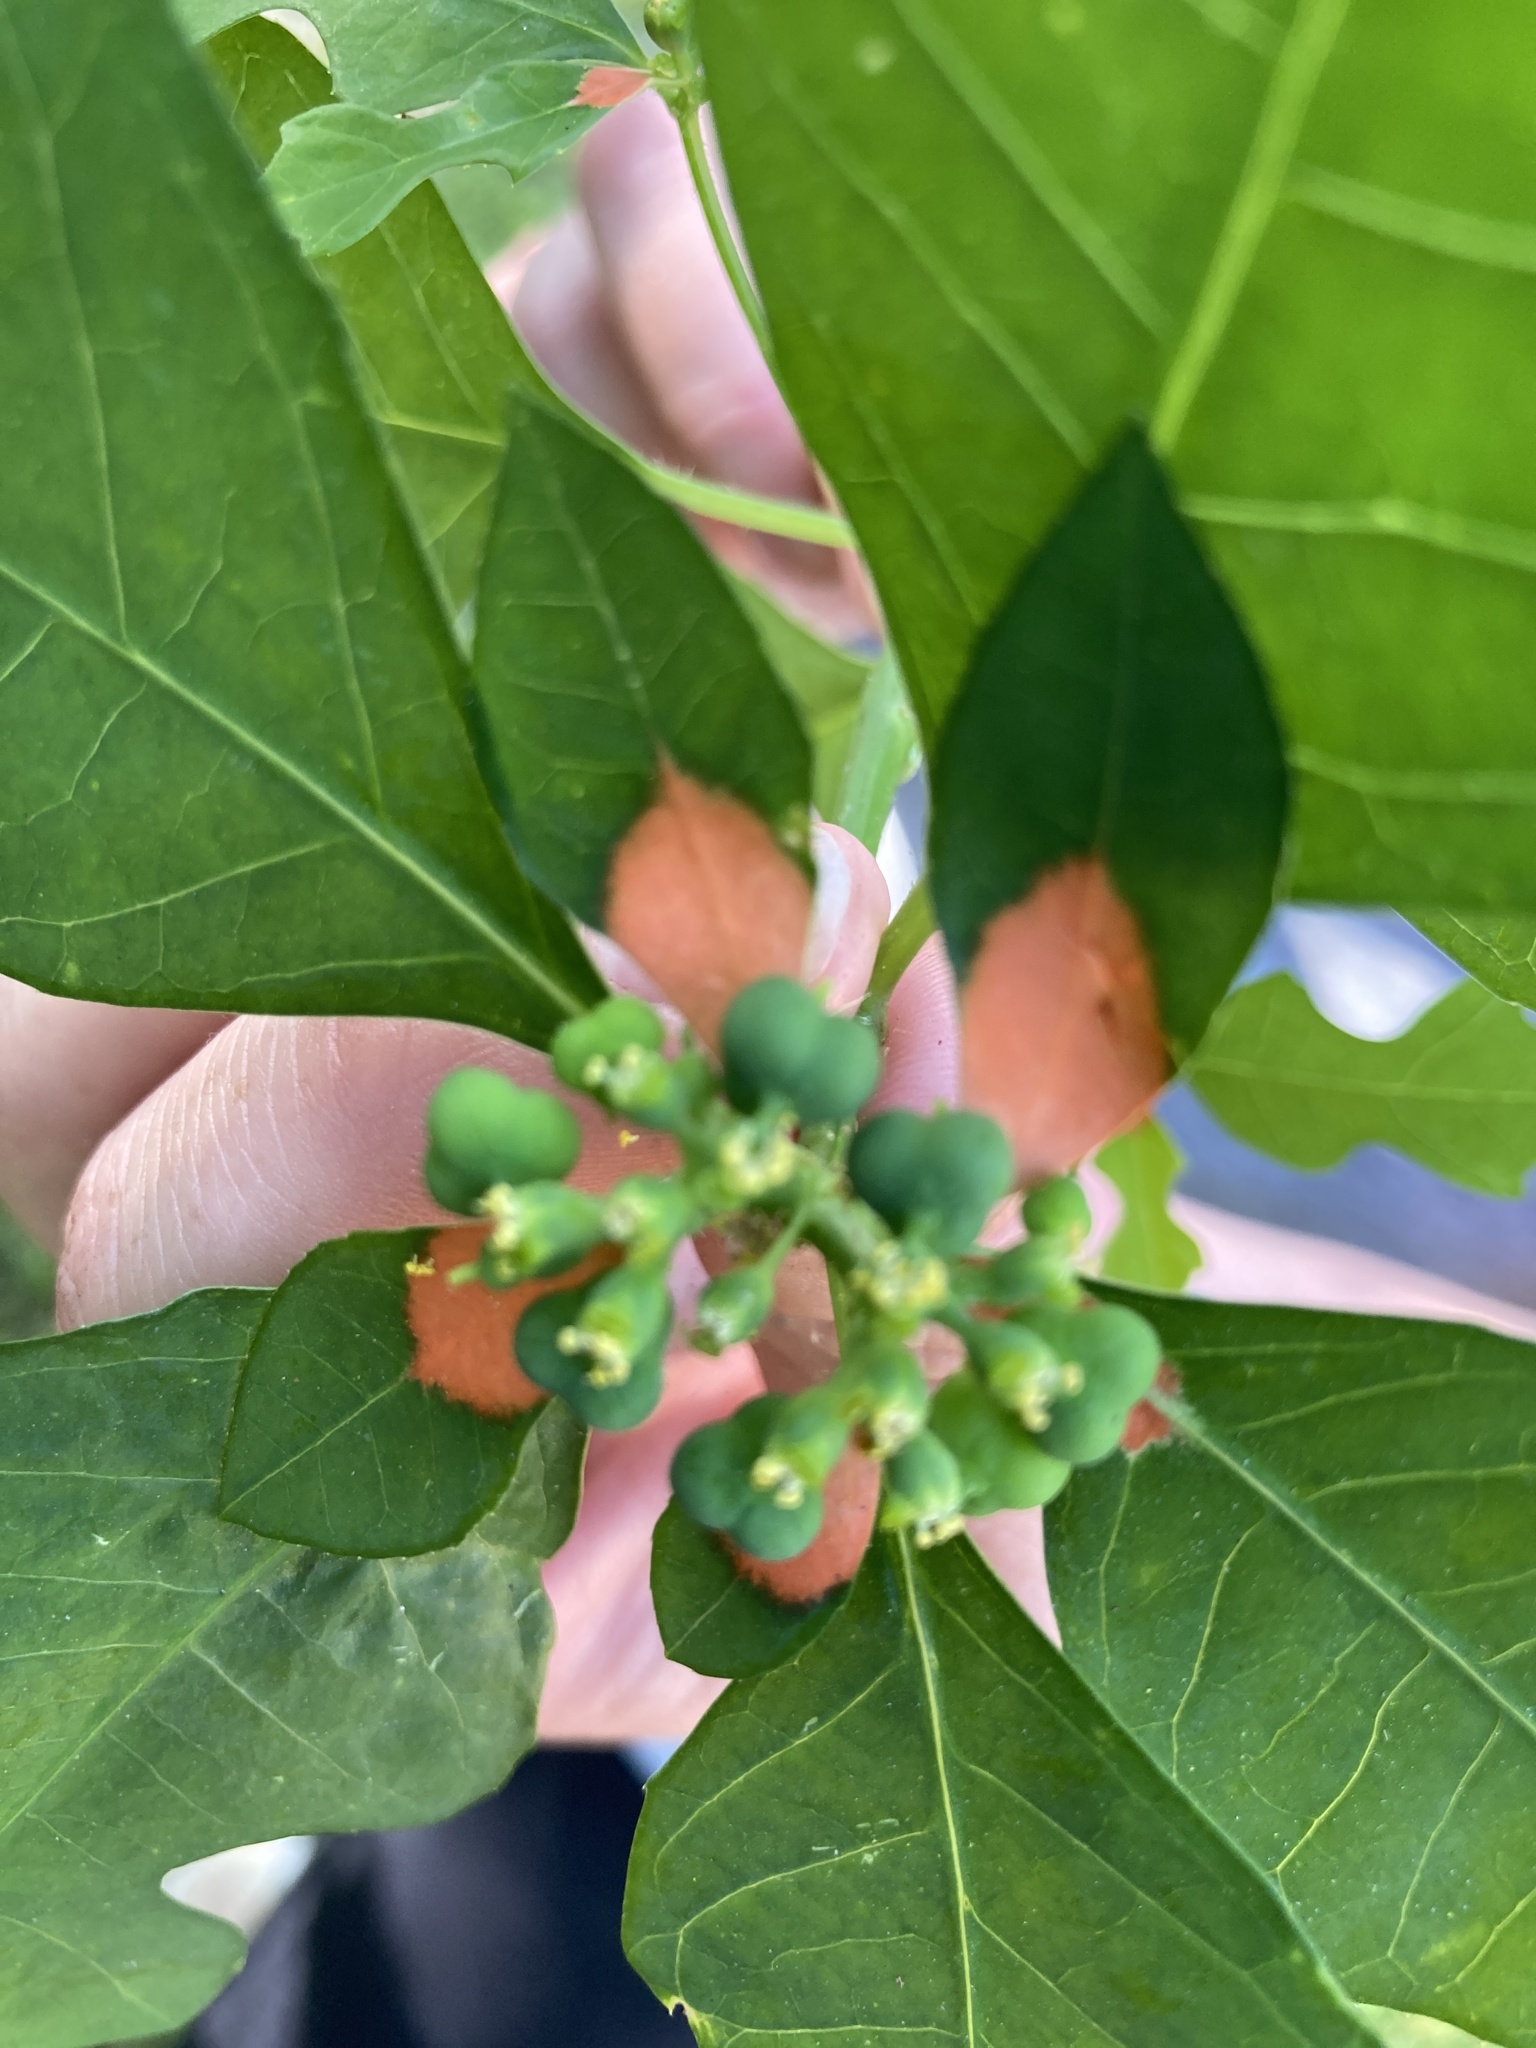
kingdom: Plantae
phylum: Tracheophyta
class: Magnoliopsida
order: Malpighiales
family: Euphorbiaceae
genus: Euphorbia
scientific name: Euphorbia heterophylla
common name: Mexican fireplant
